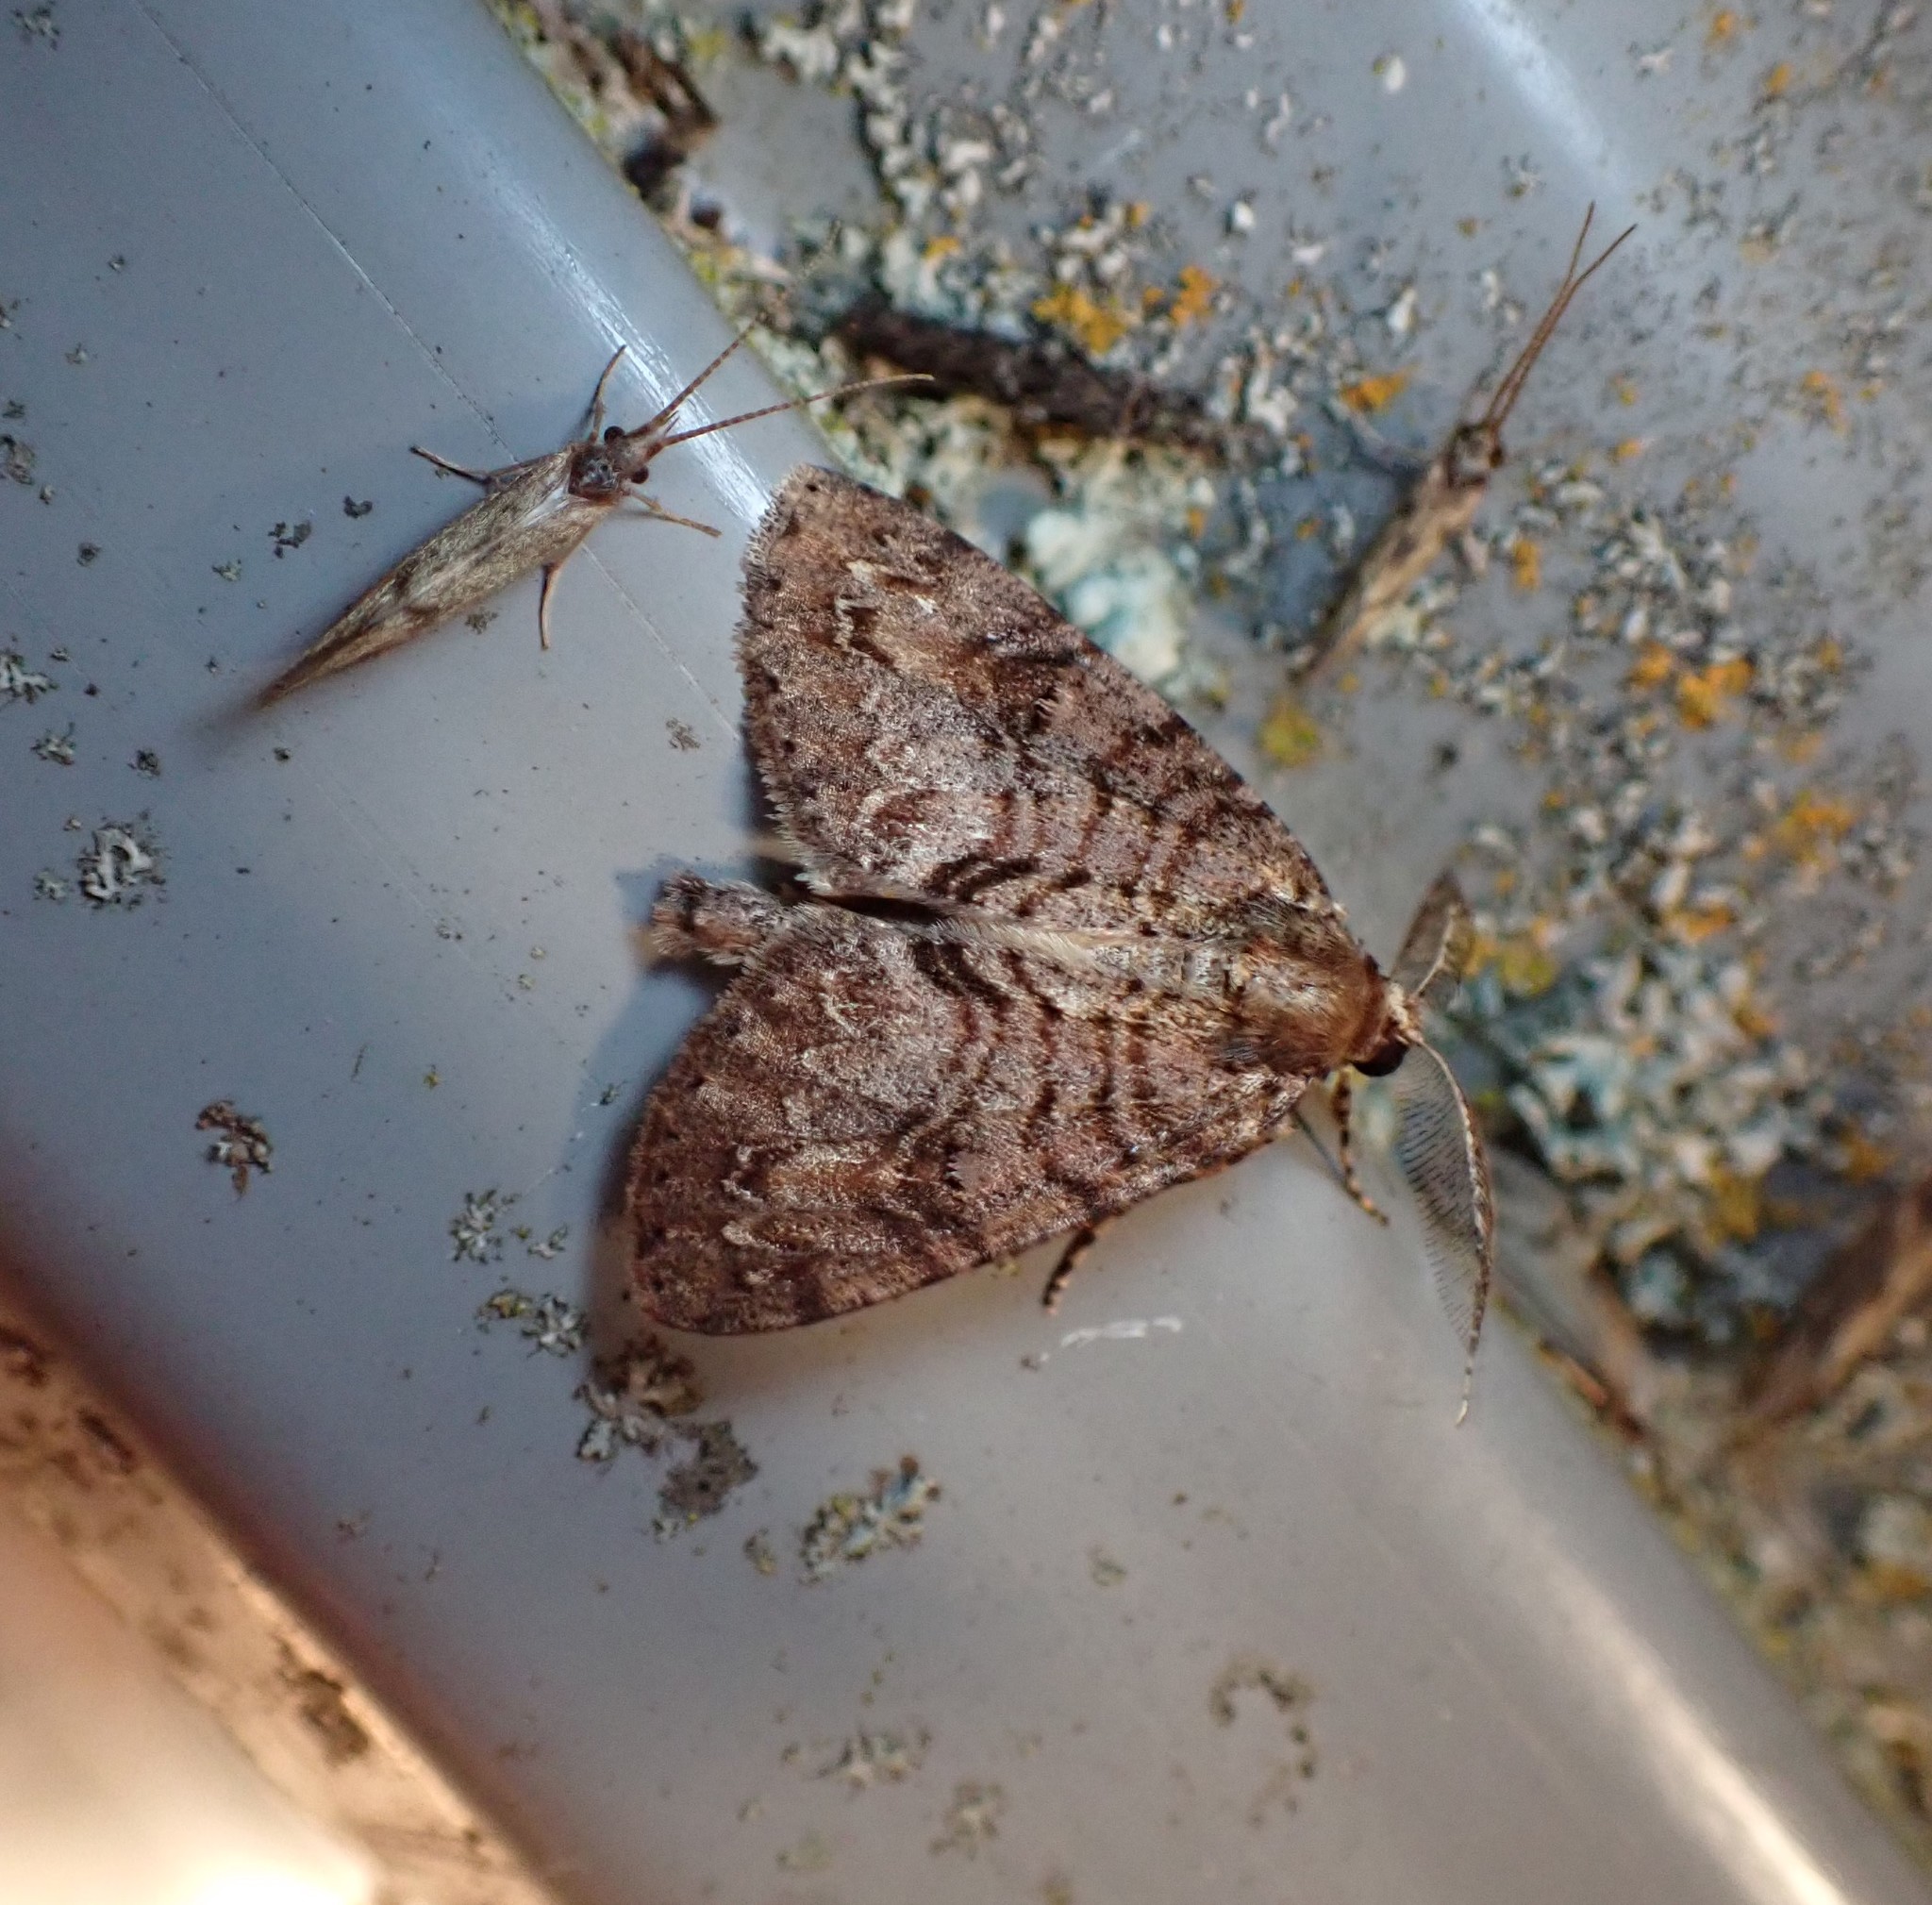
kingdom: Animalia
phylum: Arthropoda
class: Insecta
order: Lepidoptera
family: Geometridae
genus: Pseudocoremia
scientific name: Pseudocoremia suavis
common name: Common forest looper
